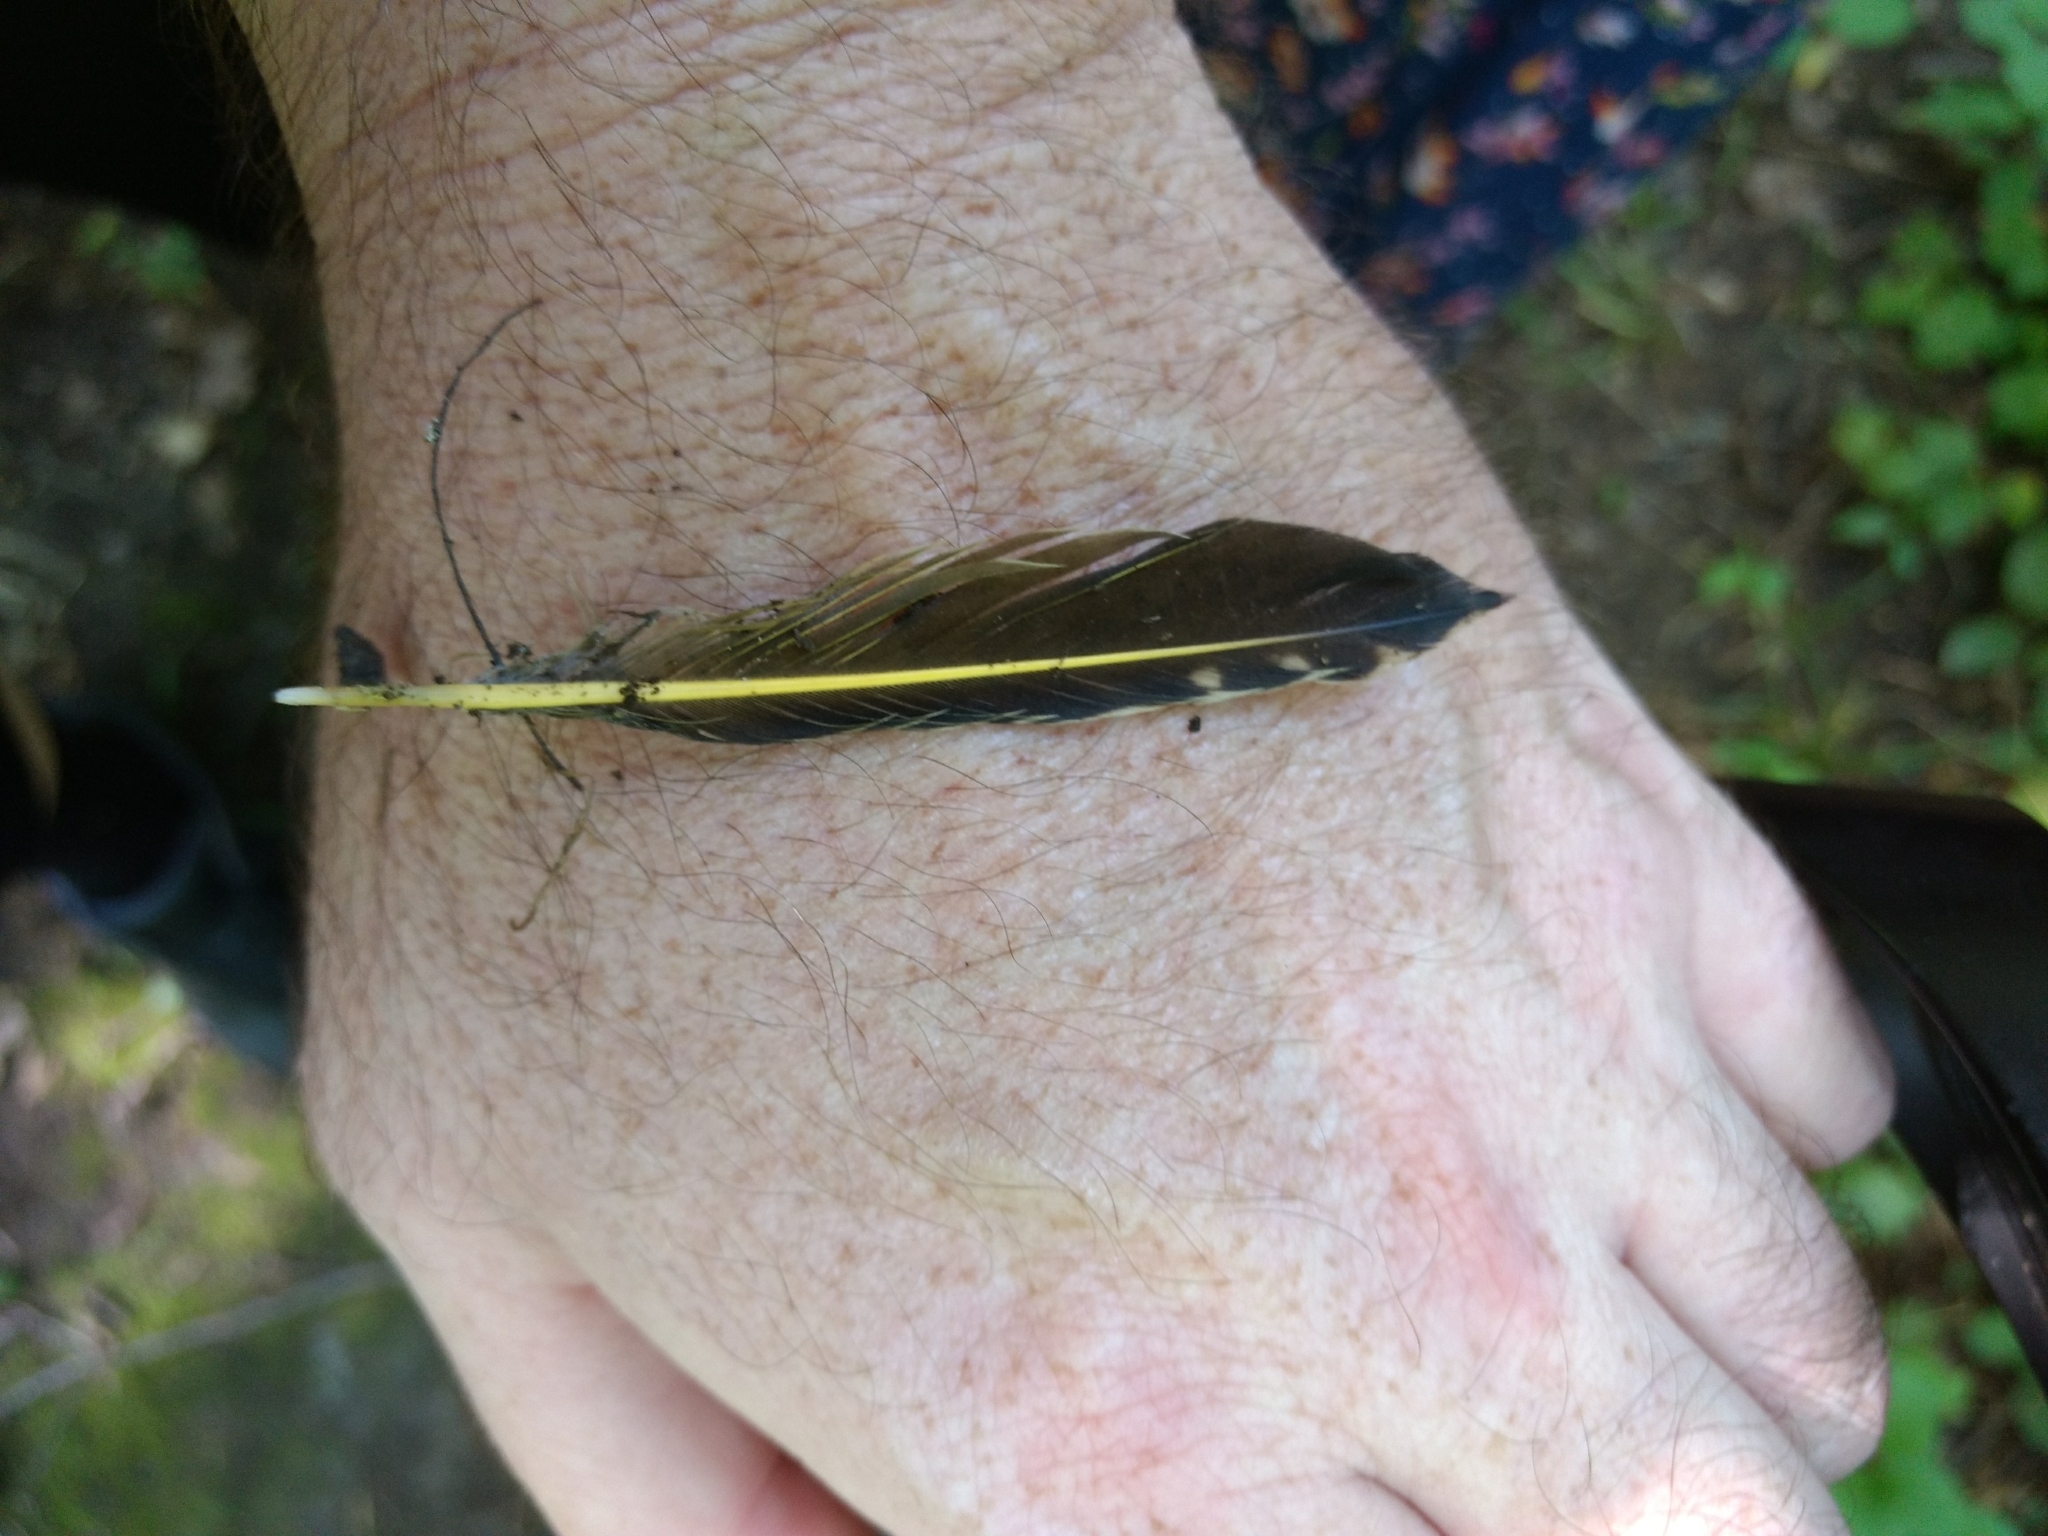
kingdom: Animalia
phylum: Chordata
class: Aves
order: Piciformes
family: Picidae
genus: Colaptes
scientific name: Colaptes auratus
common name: Northern flicker
